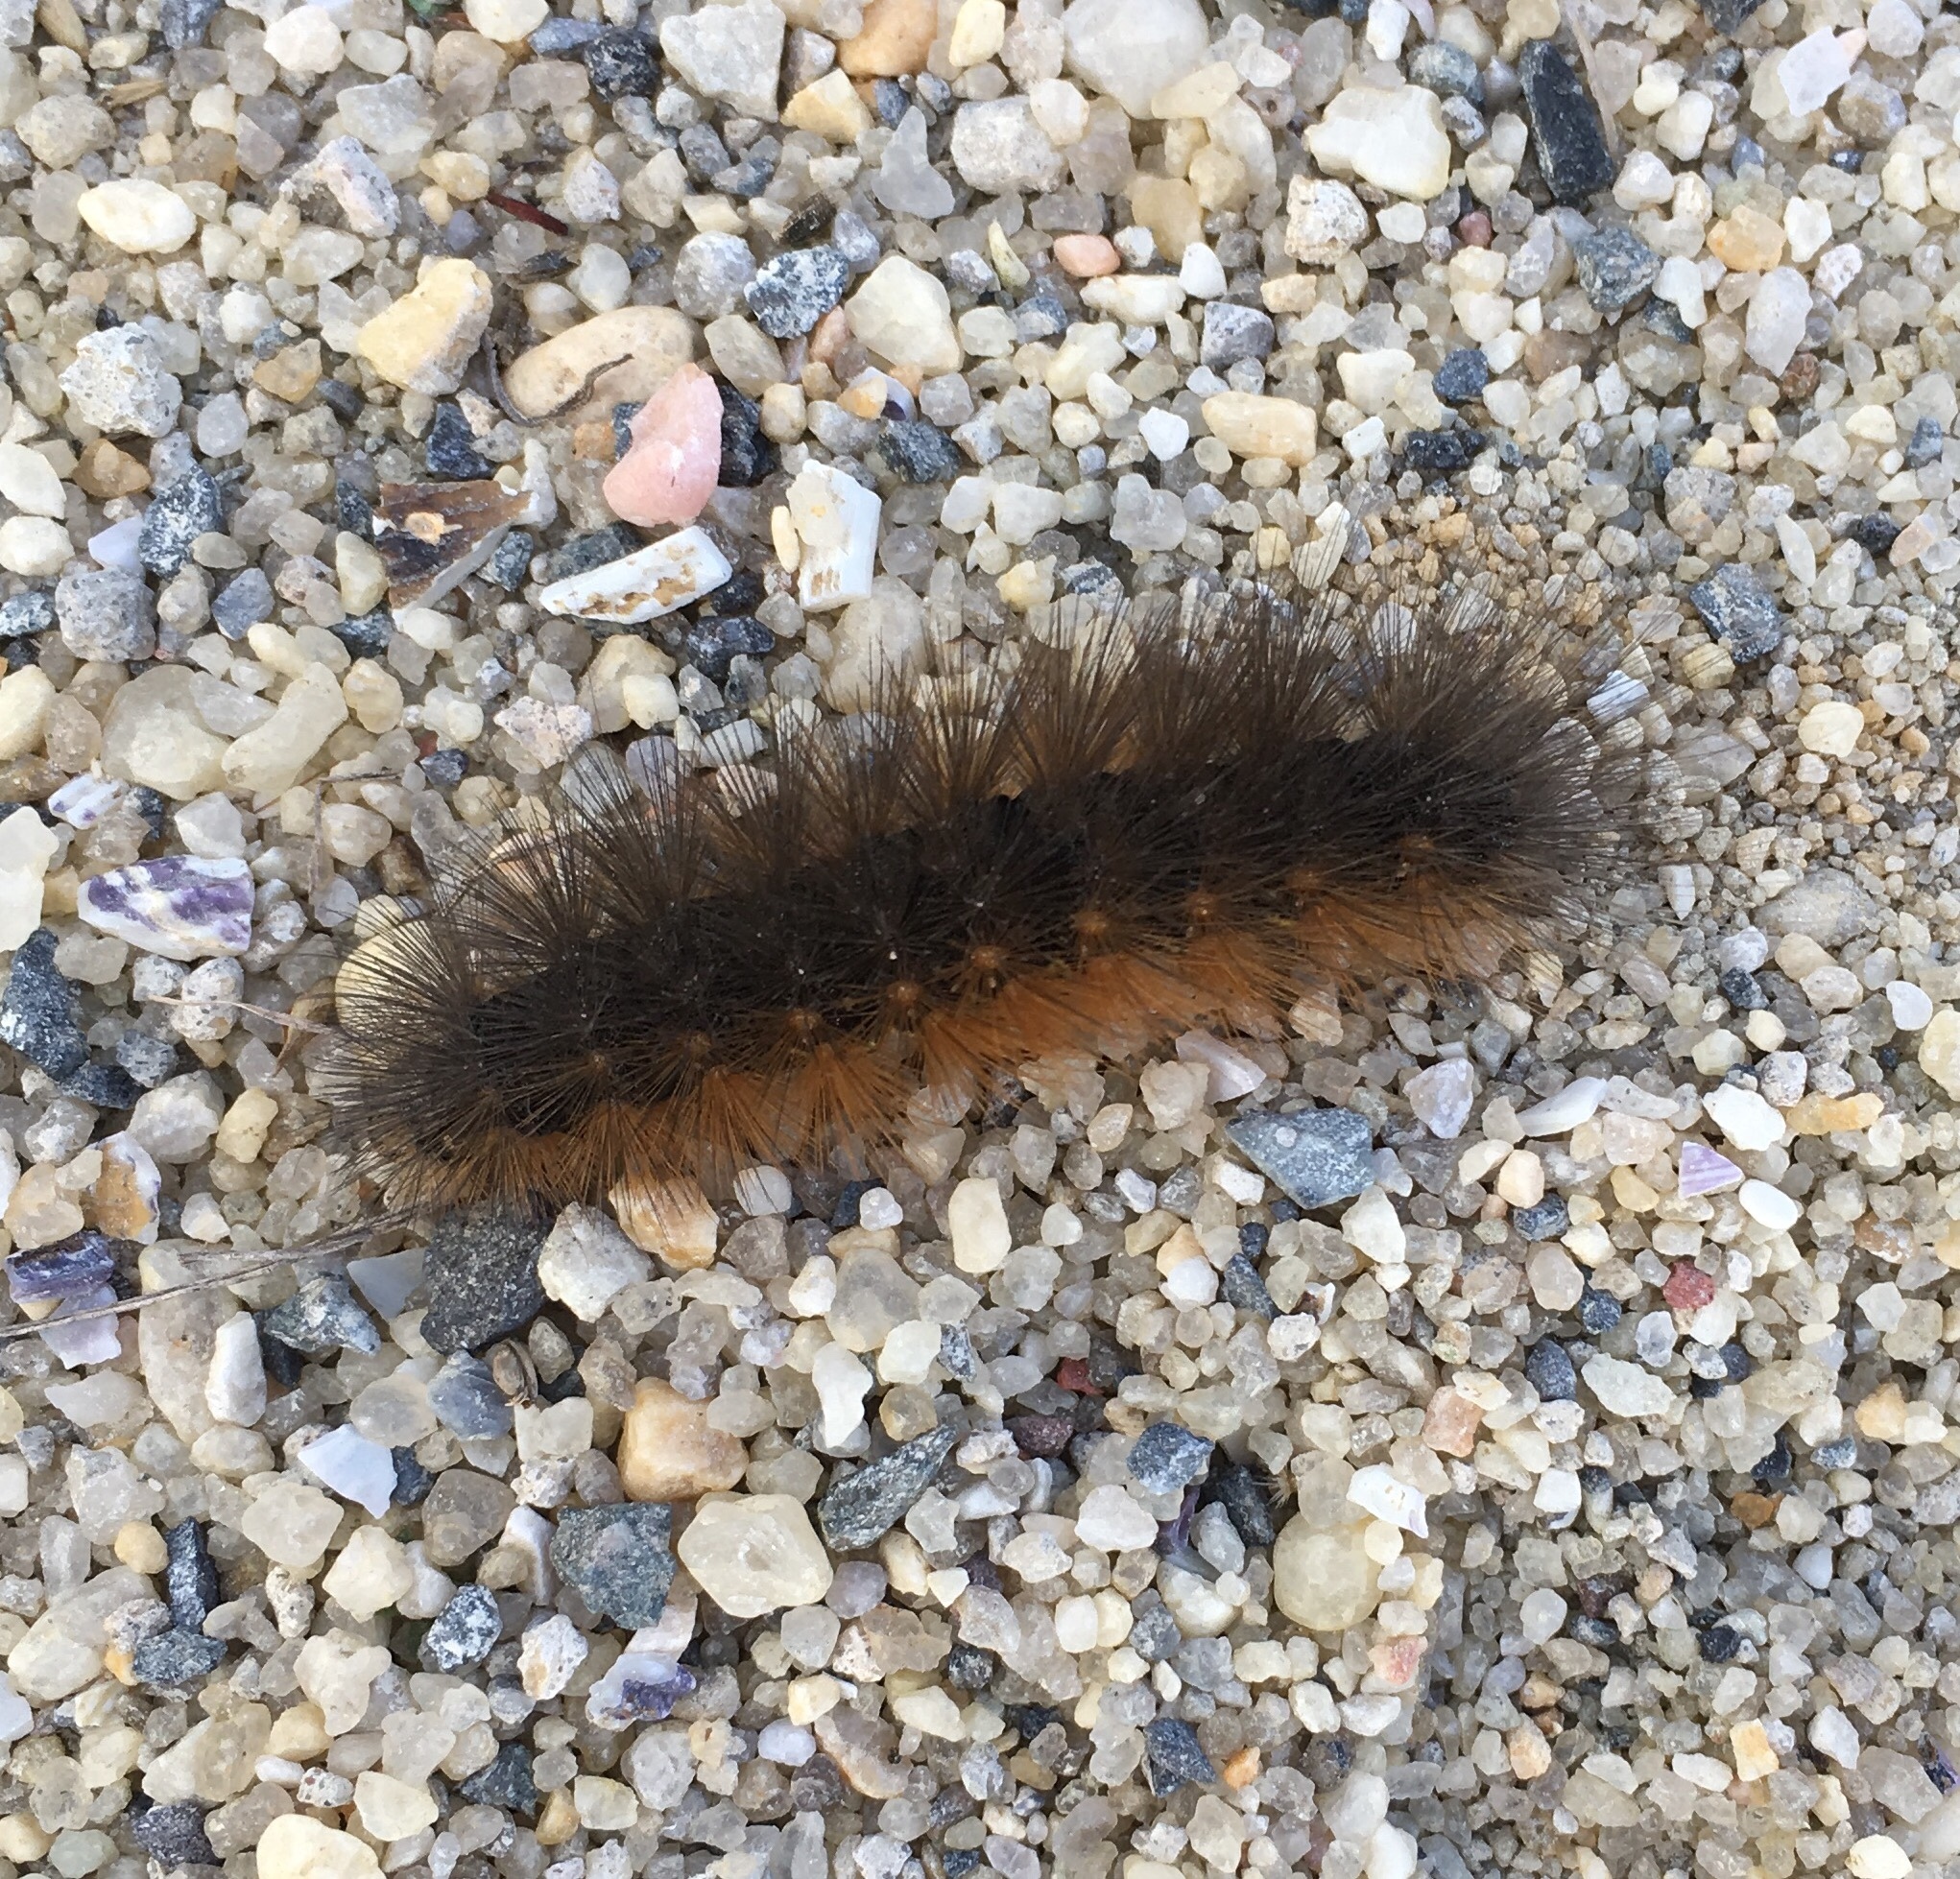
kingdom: Animalia
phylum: Arthropoda
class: Insecta
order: Lepidoptera
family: Erebidae
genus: Estigmene
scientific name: Estigmene acrea
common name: Salt marsh moth
